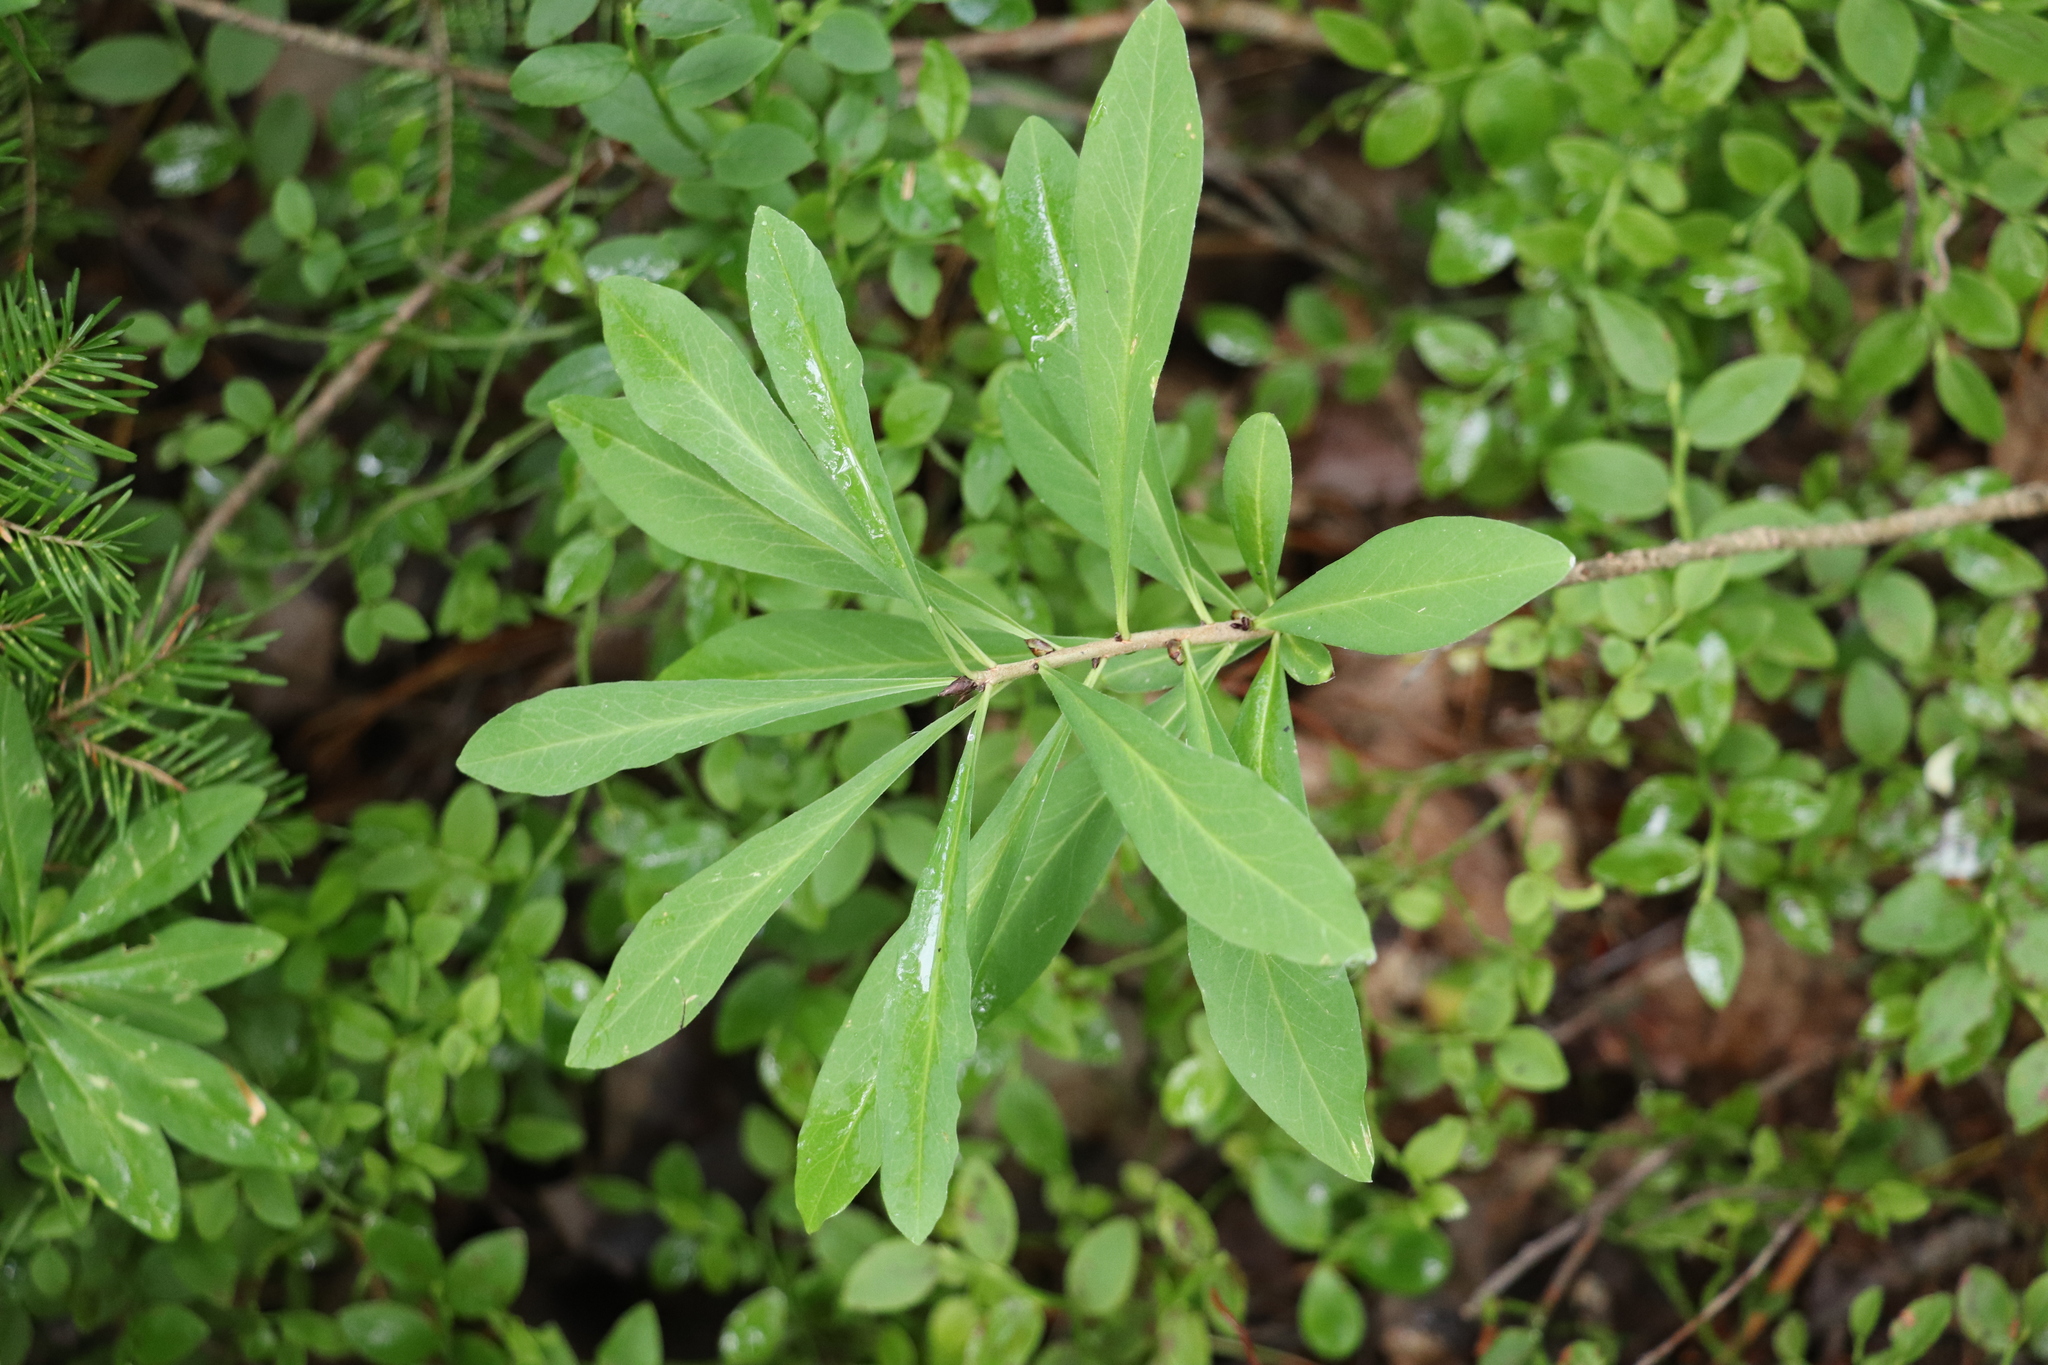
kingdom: Plantae
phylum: Tracheophyta
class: Magnoliopsida
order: Malvales
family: Thymelaeaceae
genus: Daphne
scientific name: Daphne mezereum
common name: Mezereon
